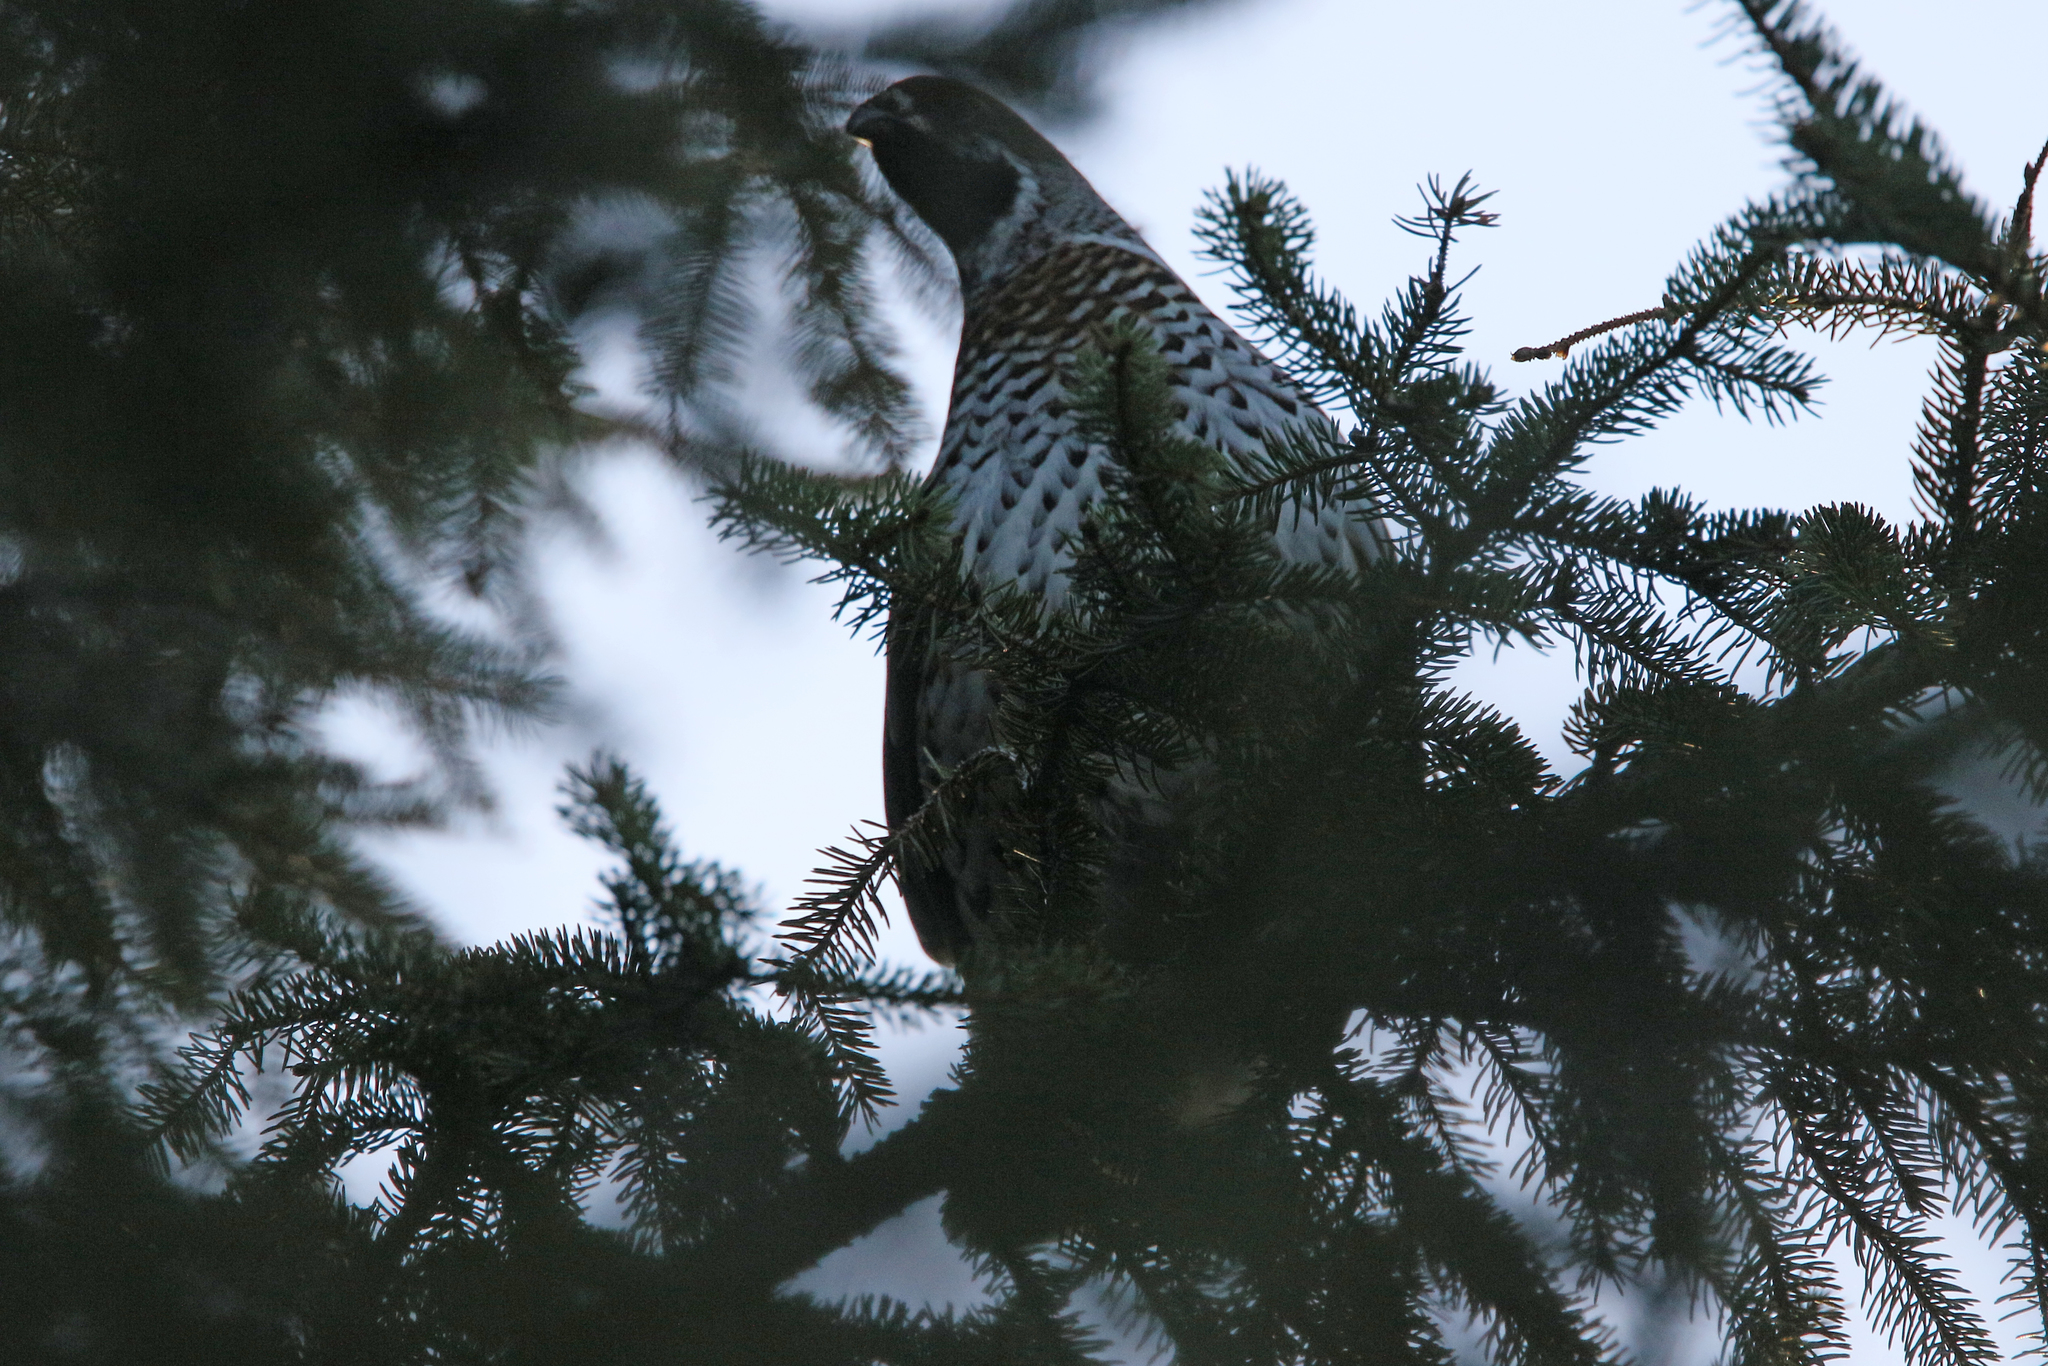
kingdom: Animalia
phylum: Chordata
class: Aves
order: Galliformes
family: Phasianidae
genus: Tetrastes
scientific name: Tetrastes bonasia
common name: Hazel grouse
